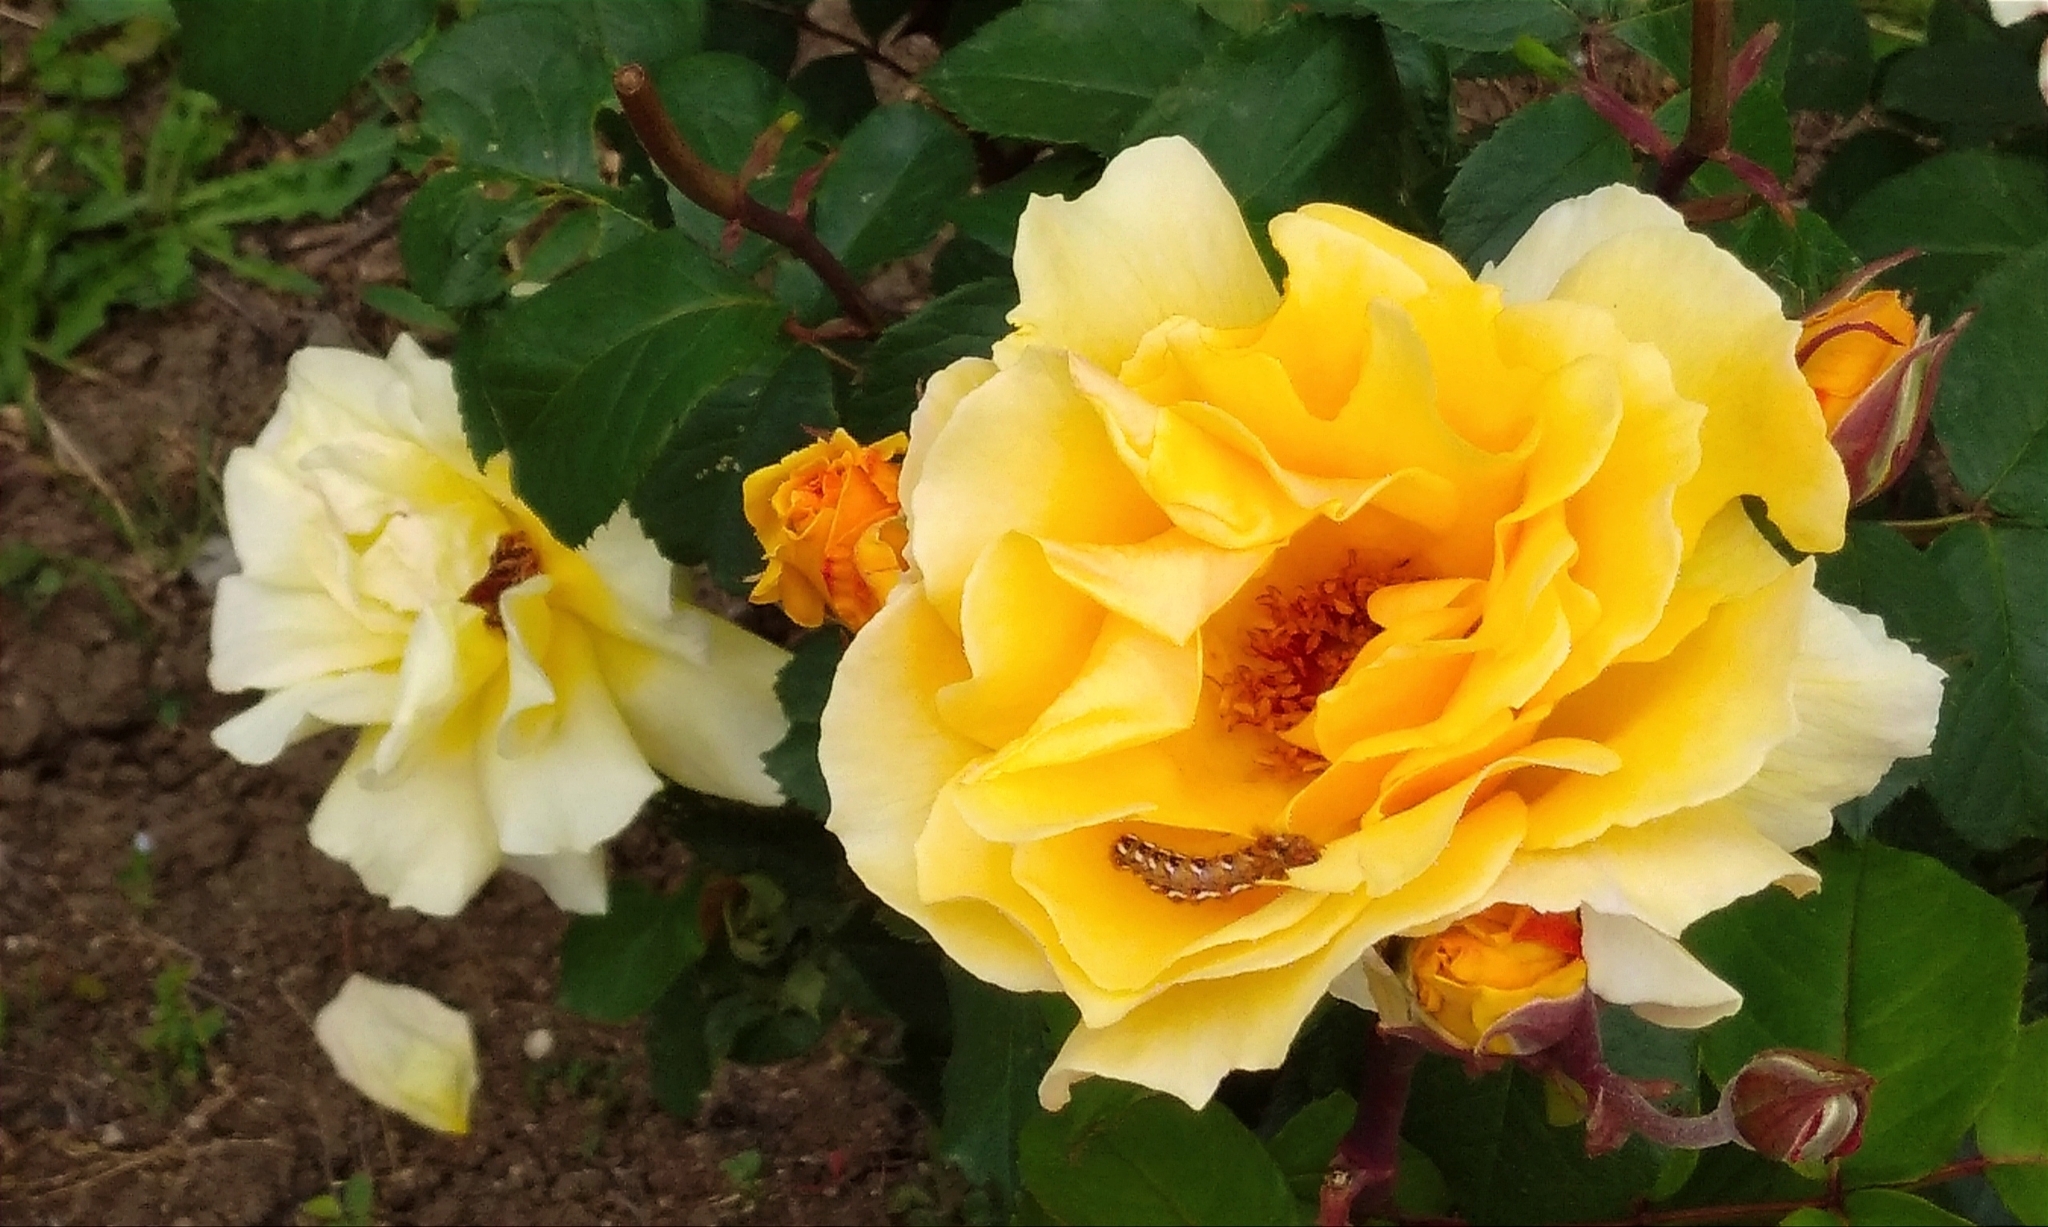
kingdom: Animalia
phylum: Arthropoda
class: Insecta
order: Lepidoptera
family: Noctuidae
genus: Acronicta
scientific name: Acronicta rumicis
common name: Knot grass
